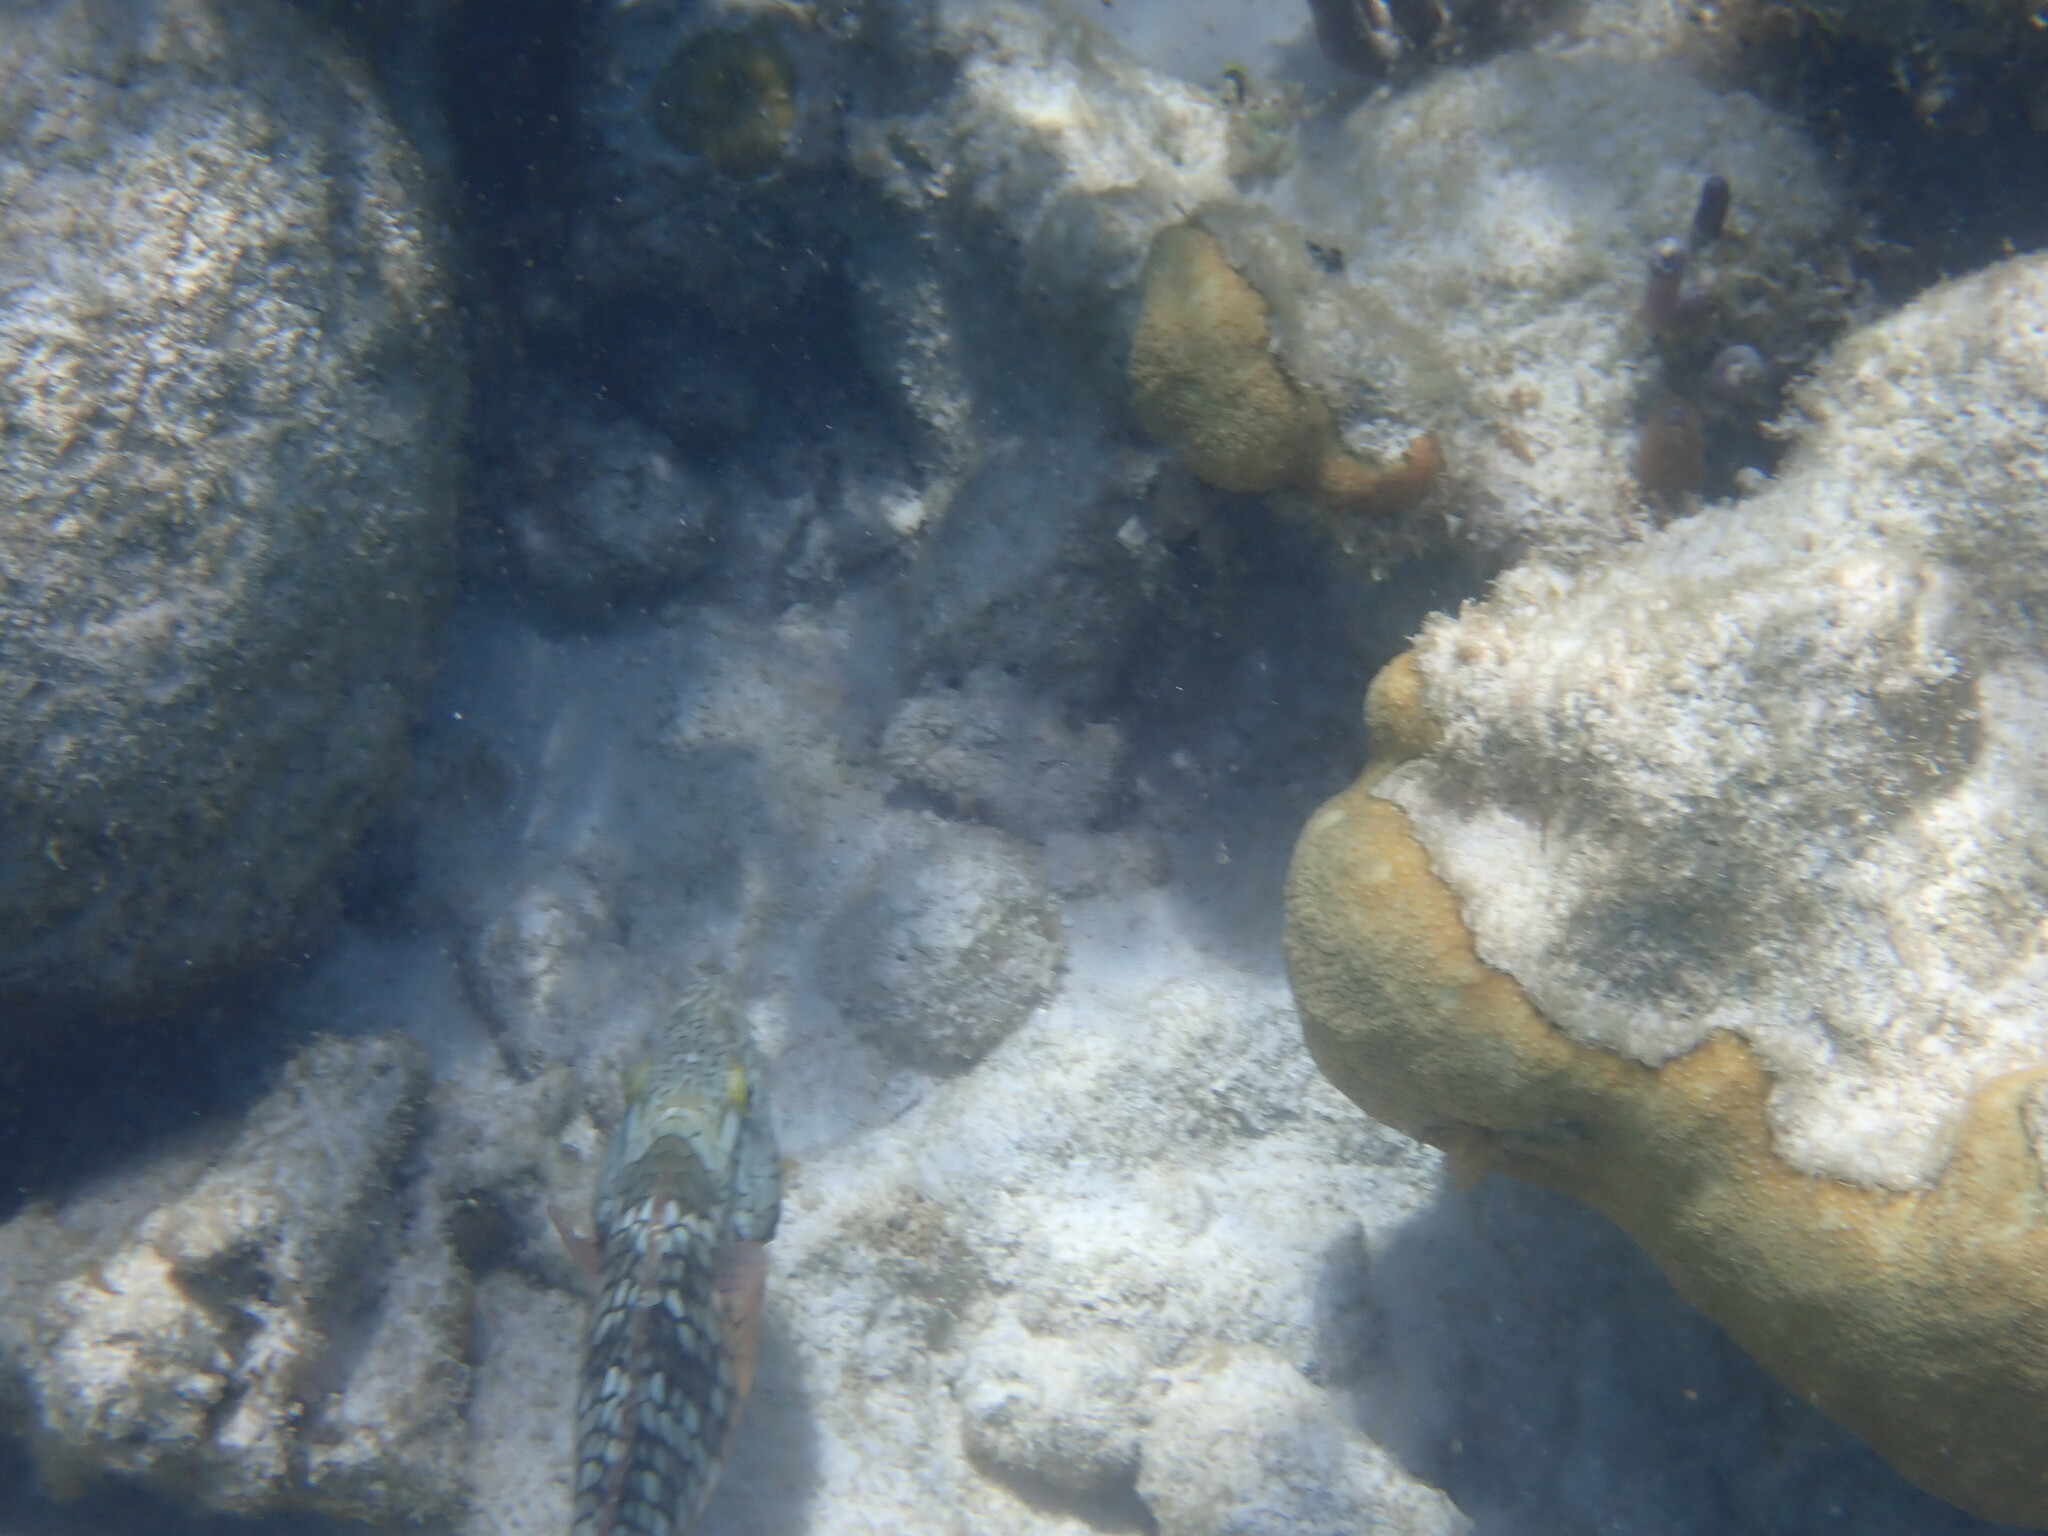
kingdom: Animalia
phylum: Chordata
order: Perciformes
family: Scaridae
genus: Sparisoma
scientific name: Sparisoma viride
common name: Stoplight parrotfish
